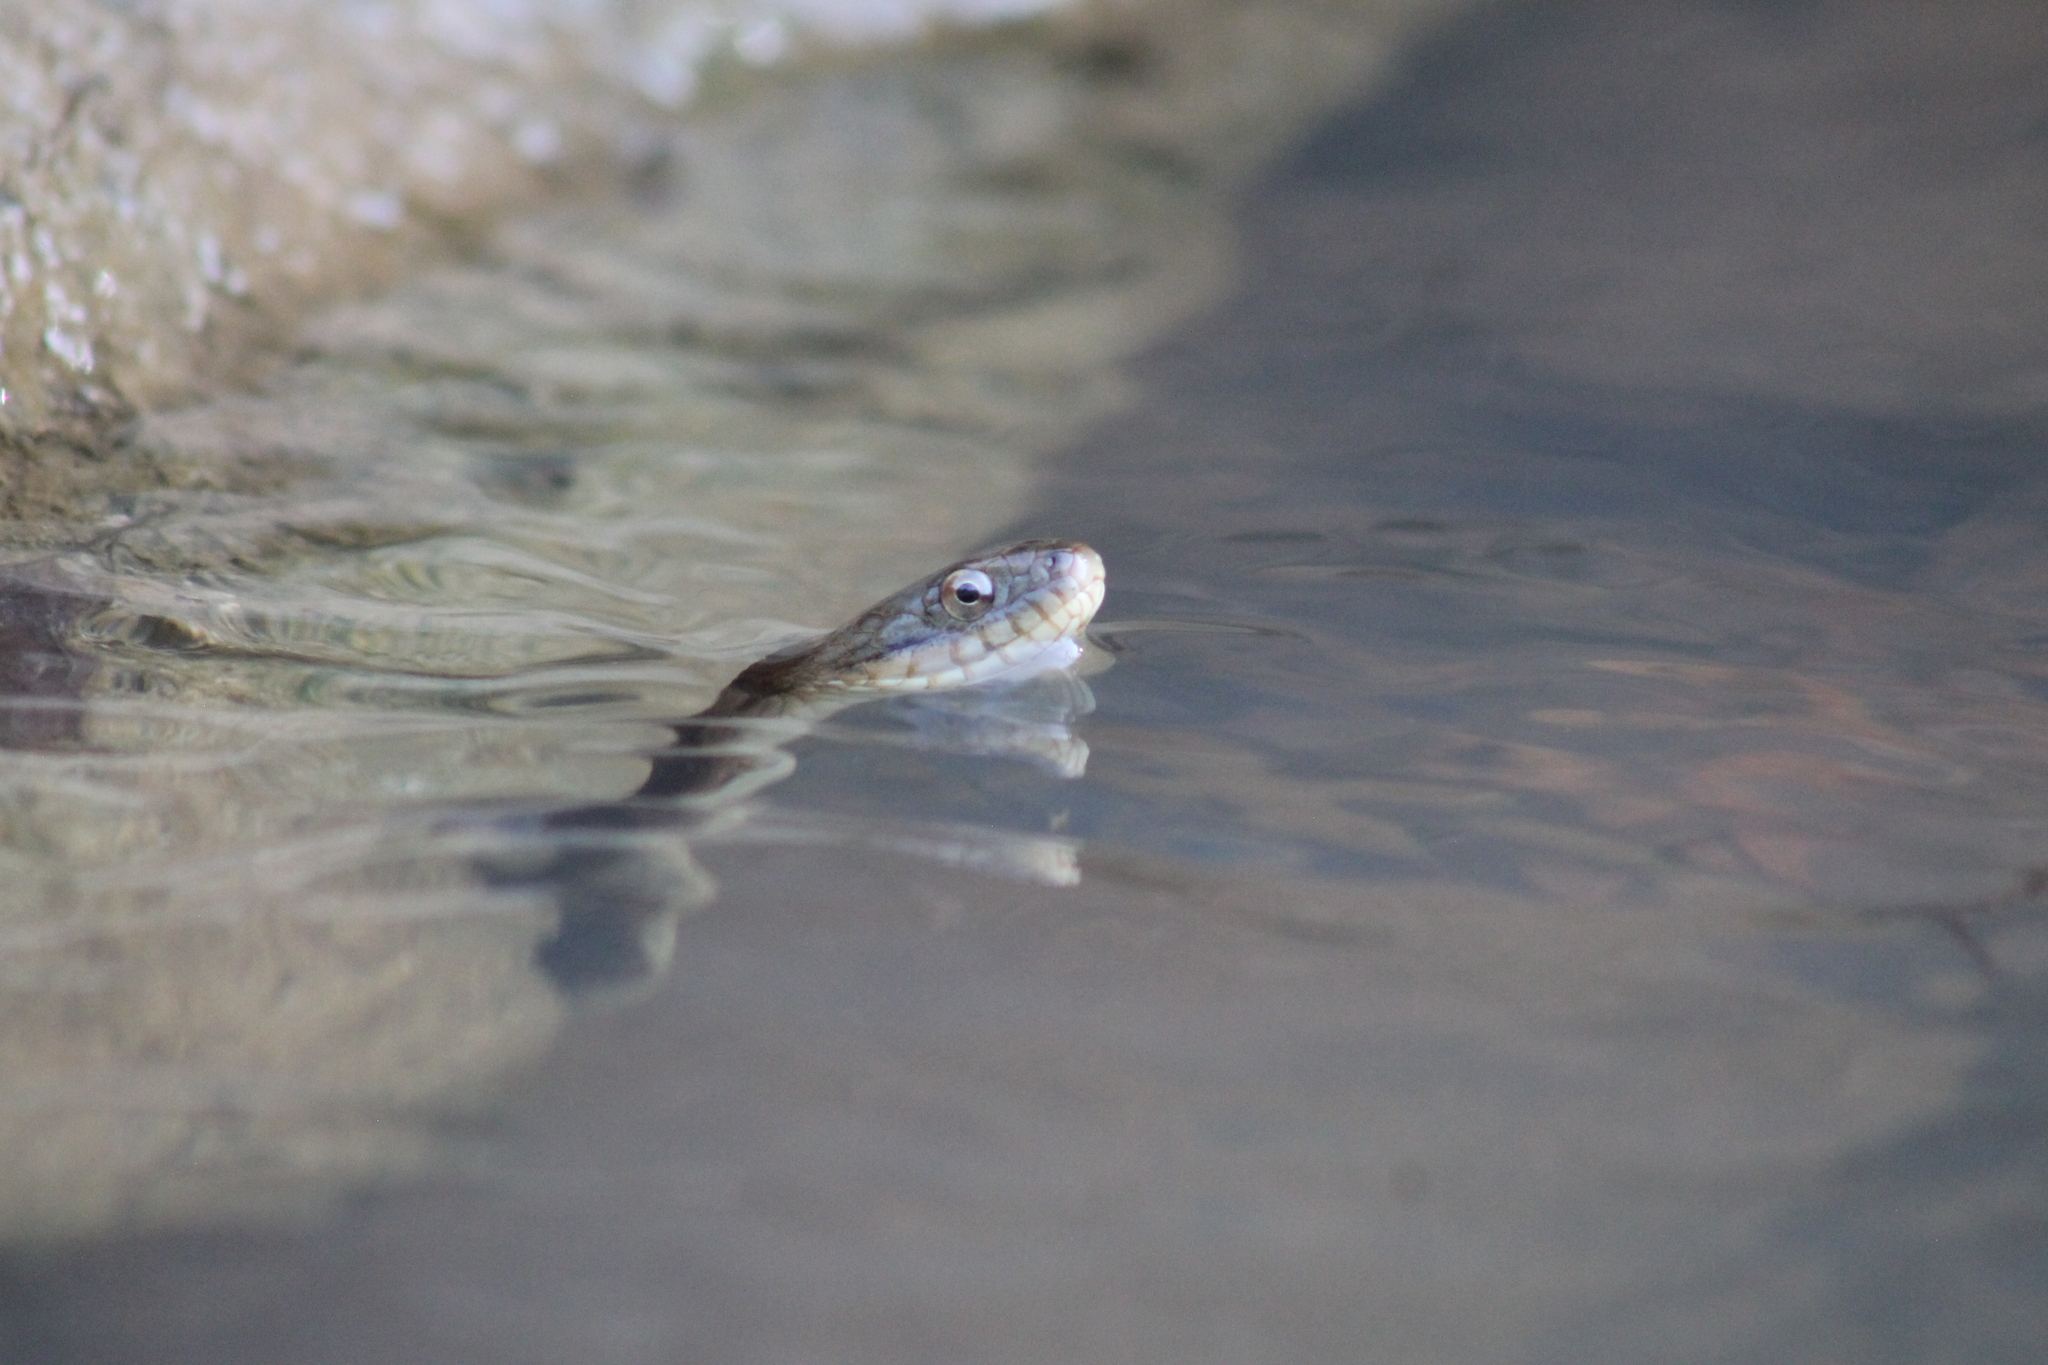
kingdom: Animalia
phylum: Chordata
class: Squamata
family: Colubridae
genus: Nerodia
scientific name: Nerodia sipedon
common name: Northern water snake
